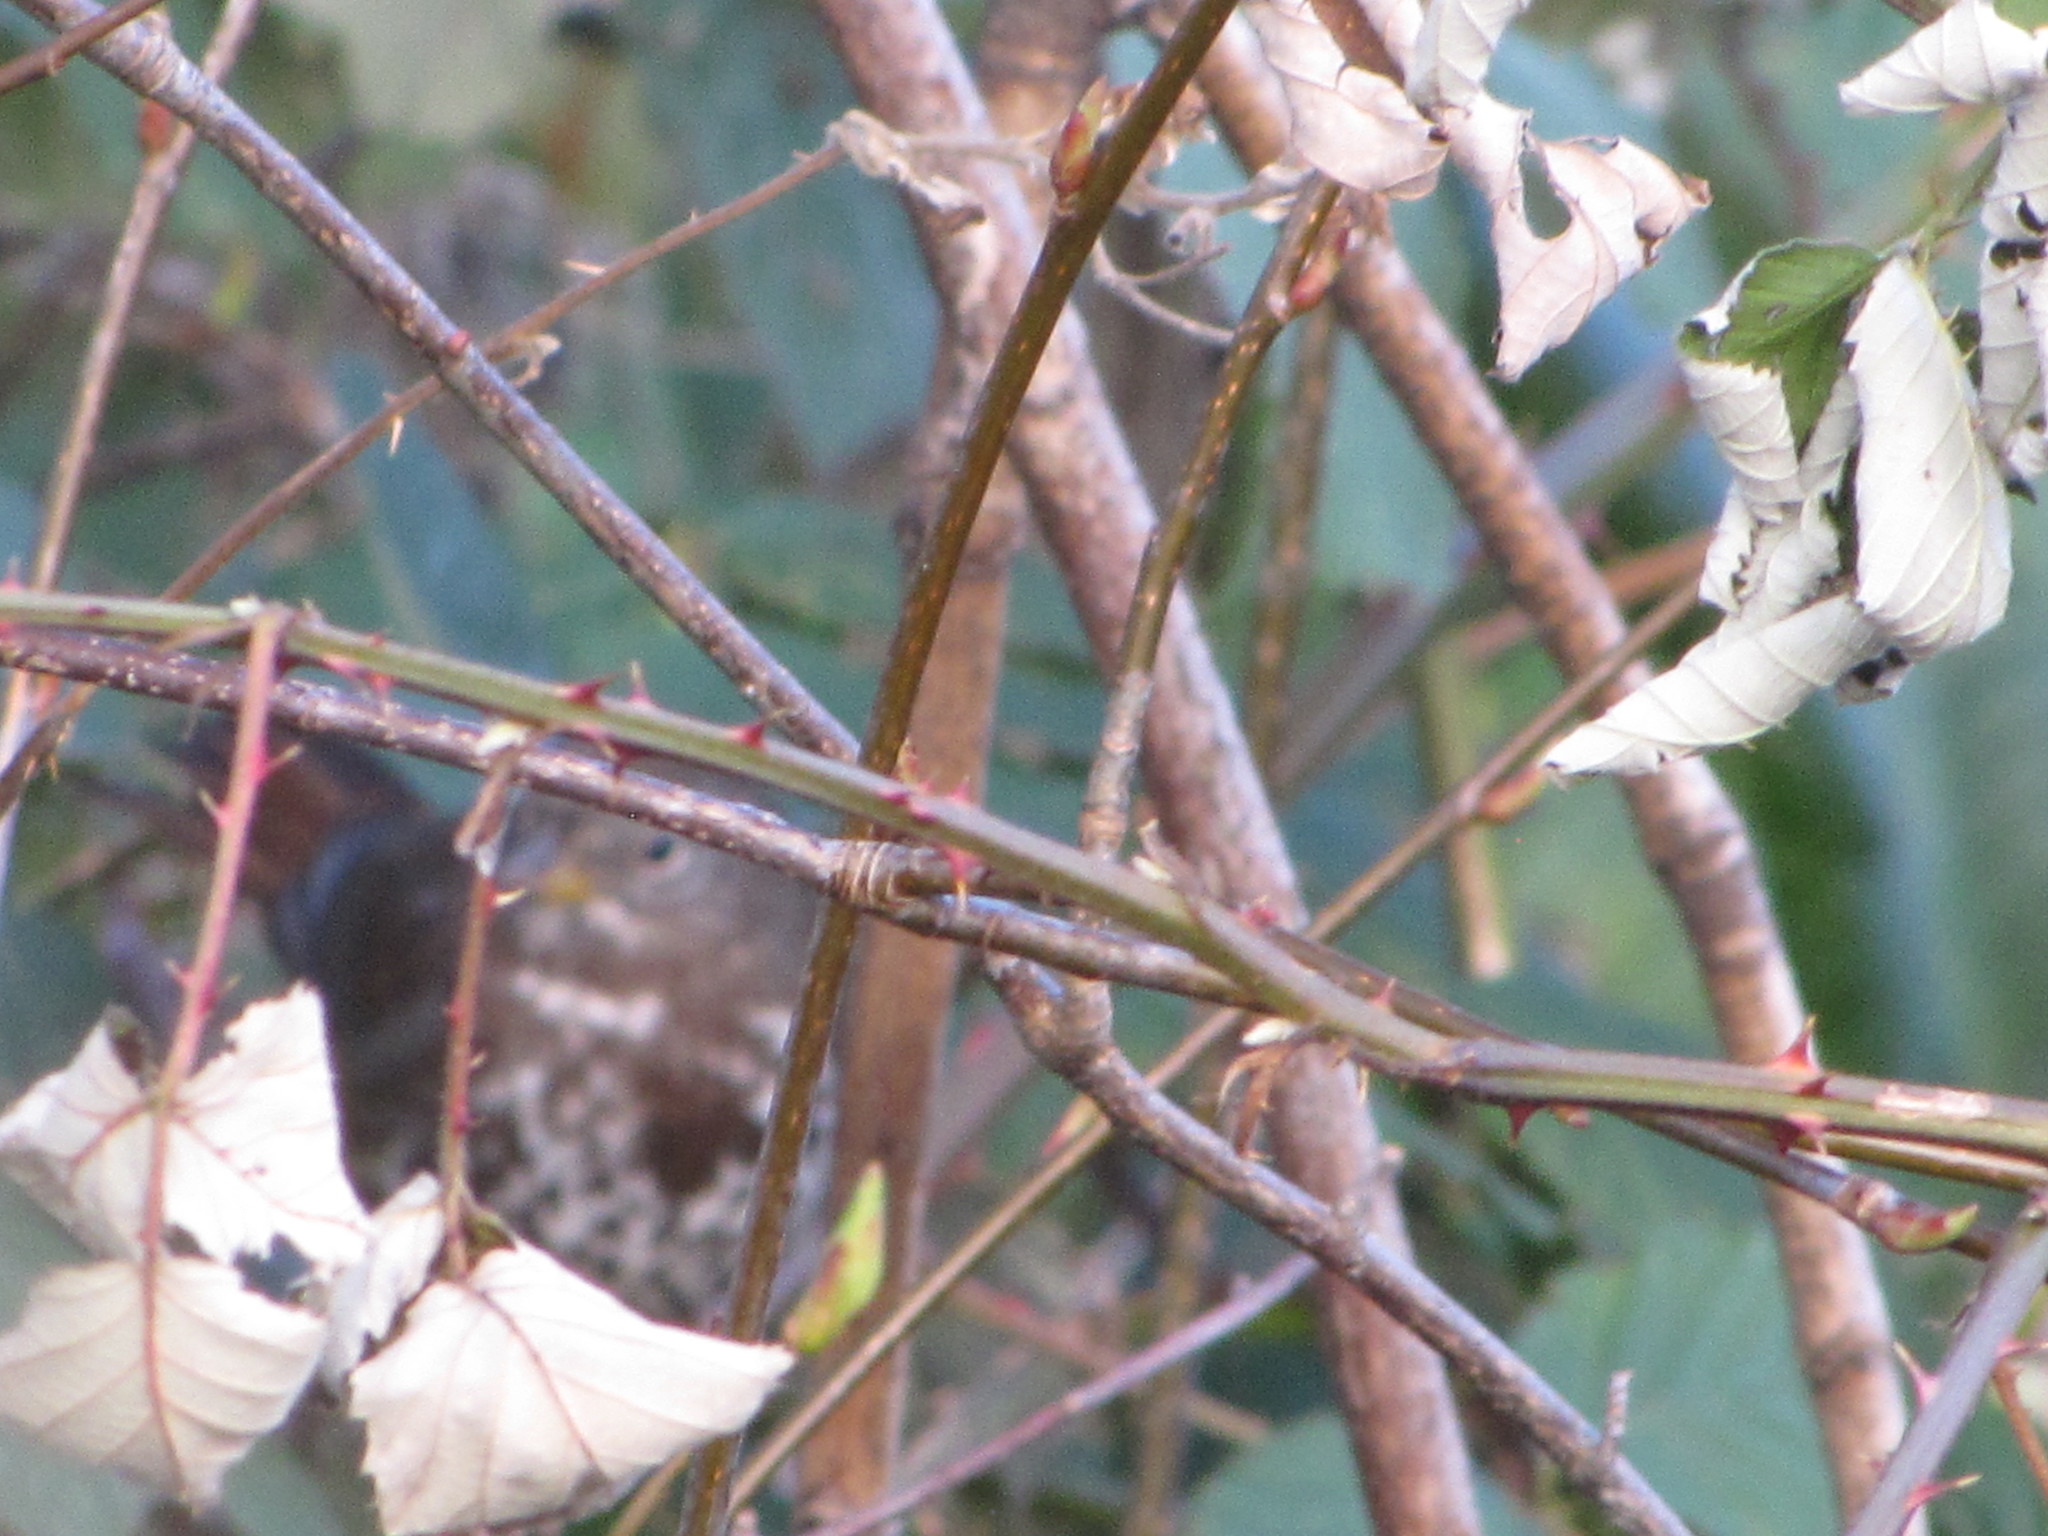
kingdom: Animalia
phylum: Chordata
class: Aves
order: Passeriformes
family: Passerellidae
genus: Passerella
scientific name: Passerella iliaca
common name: Fox sparrow
